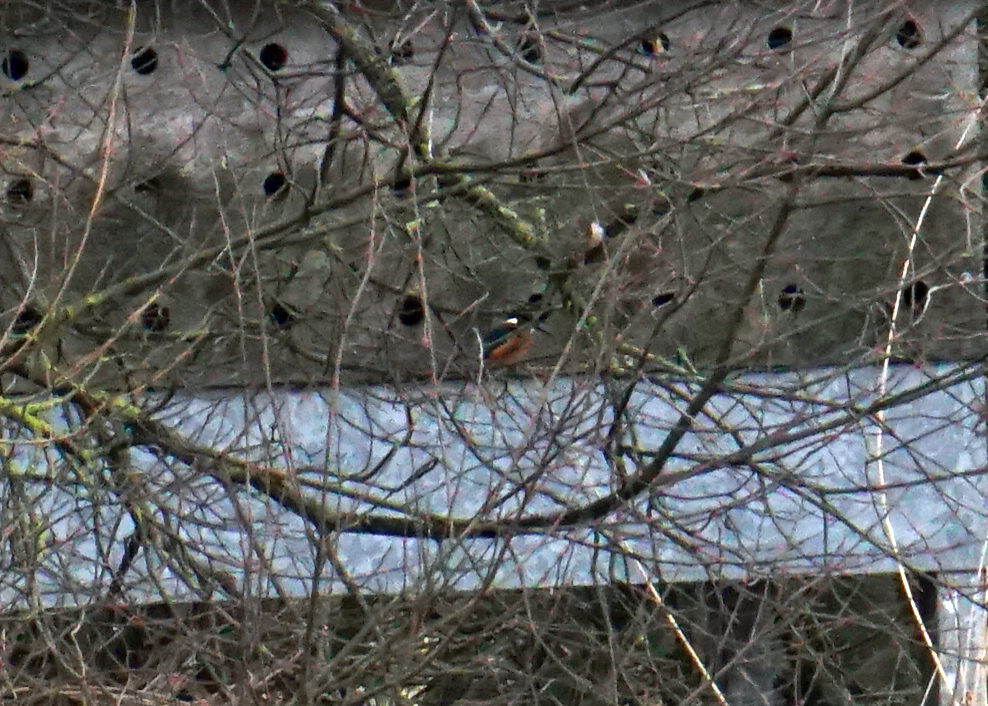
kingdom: Animalia
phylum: Chordata
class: Aves
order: Coraciiformes
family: Alcedinidae
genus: Alcedo
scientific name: Alcedo atthis
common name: Common kingfisher
